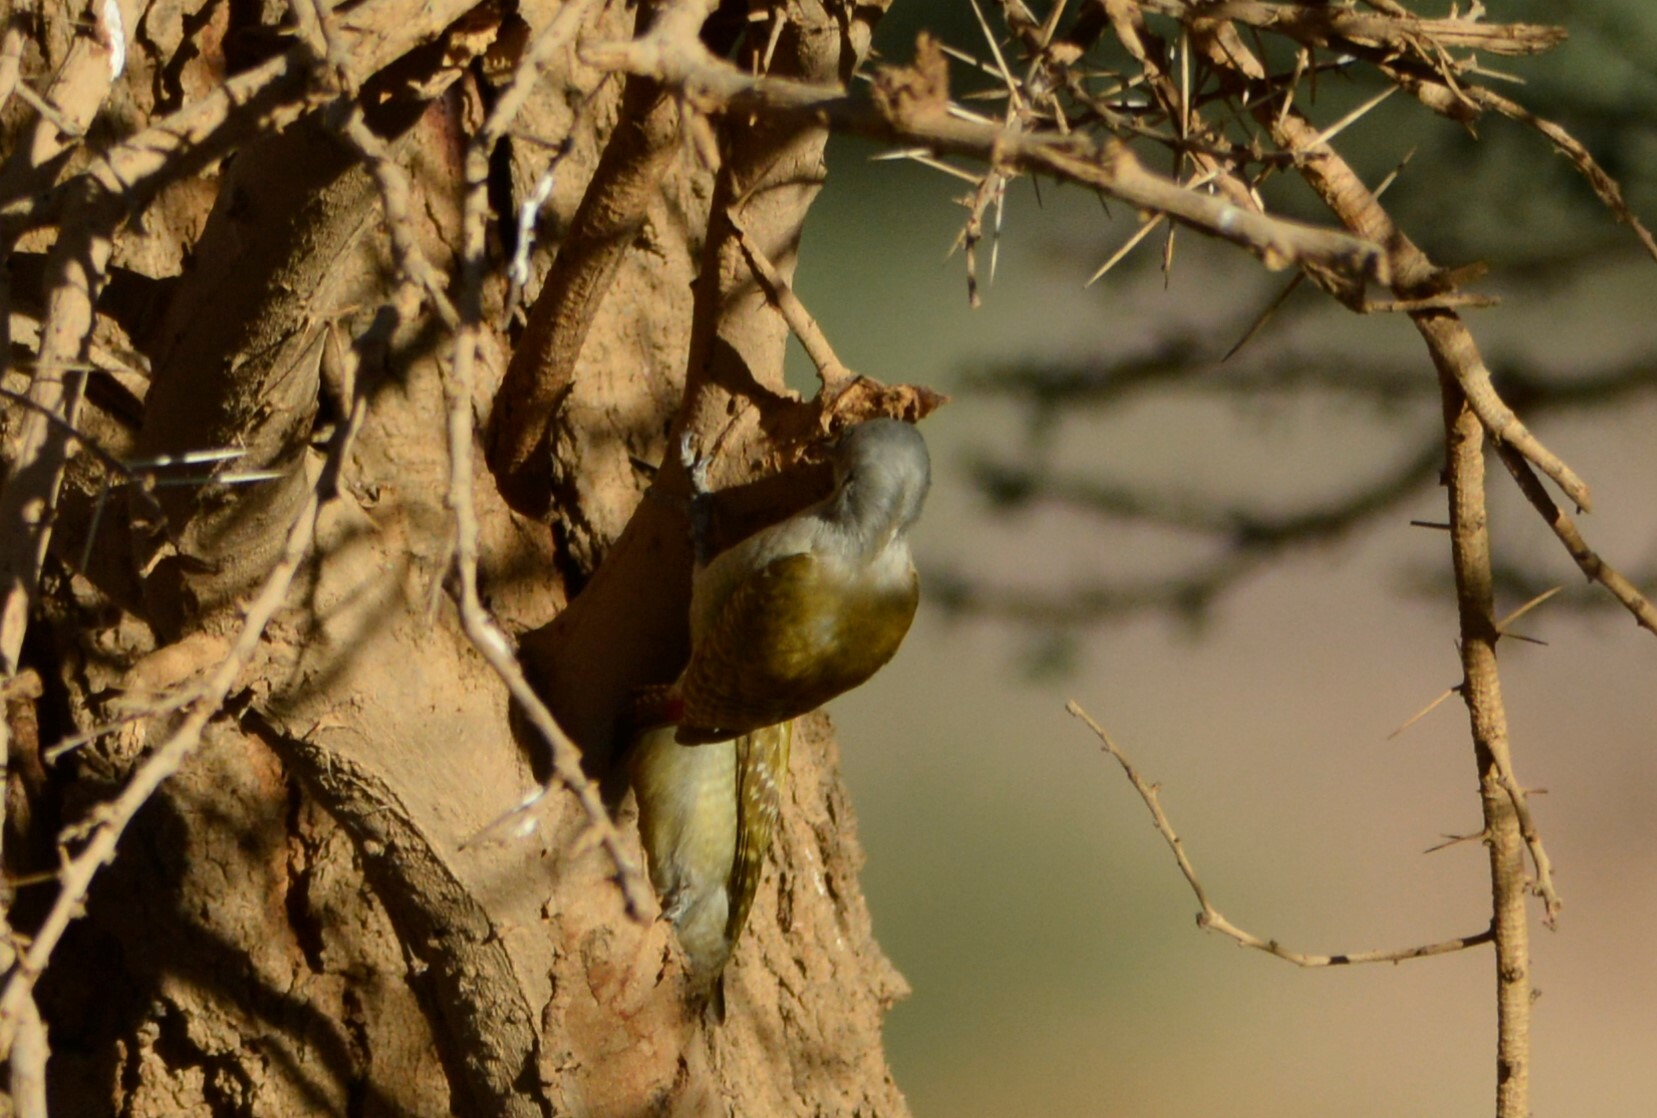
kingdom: Animalia
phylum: Chordata
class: Aves
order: Piciformes
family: Picidae
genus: Dendropicos
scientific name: Dendropicos goertae
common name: African grey woodpecker
